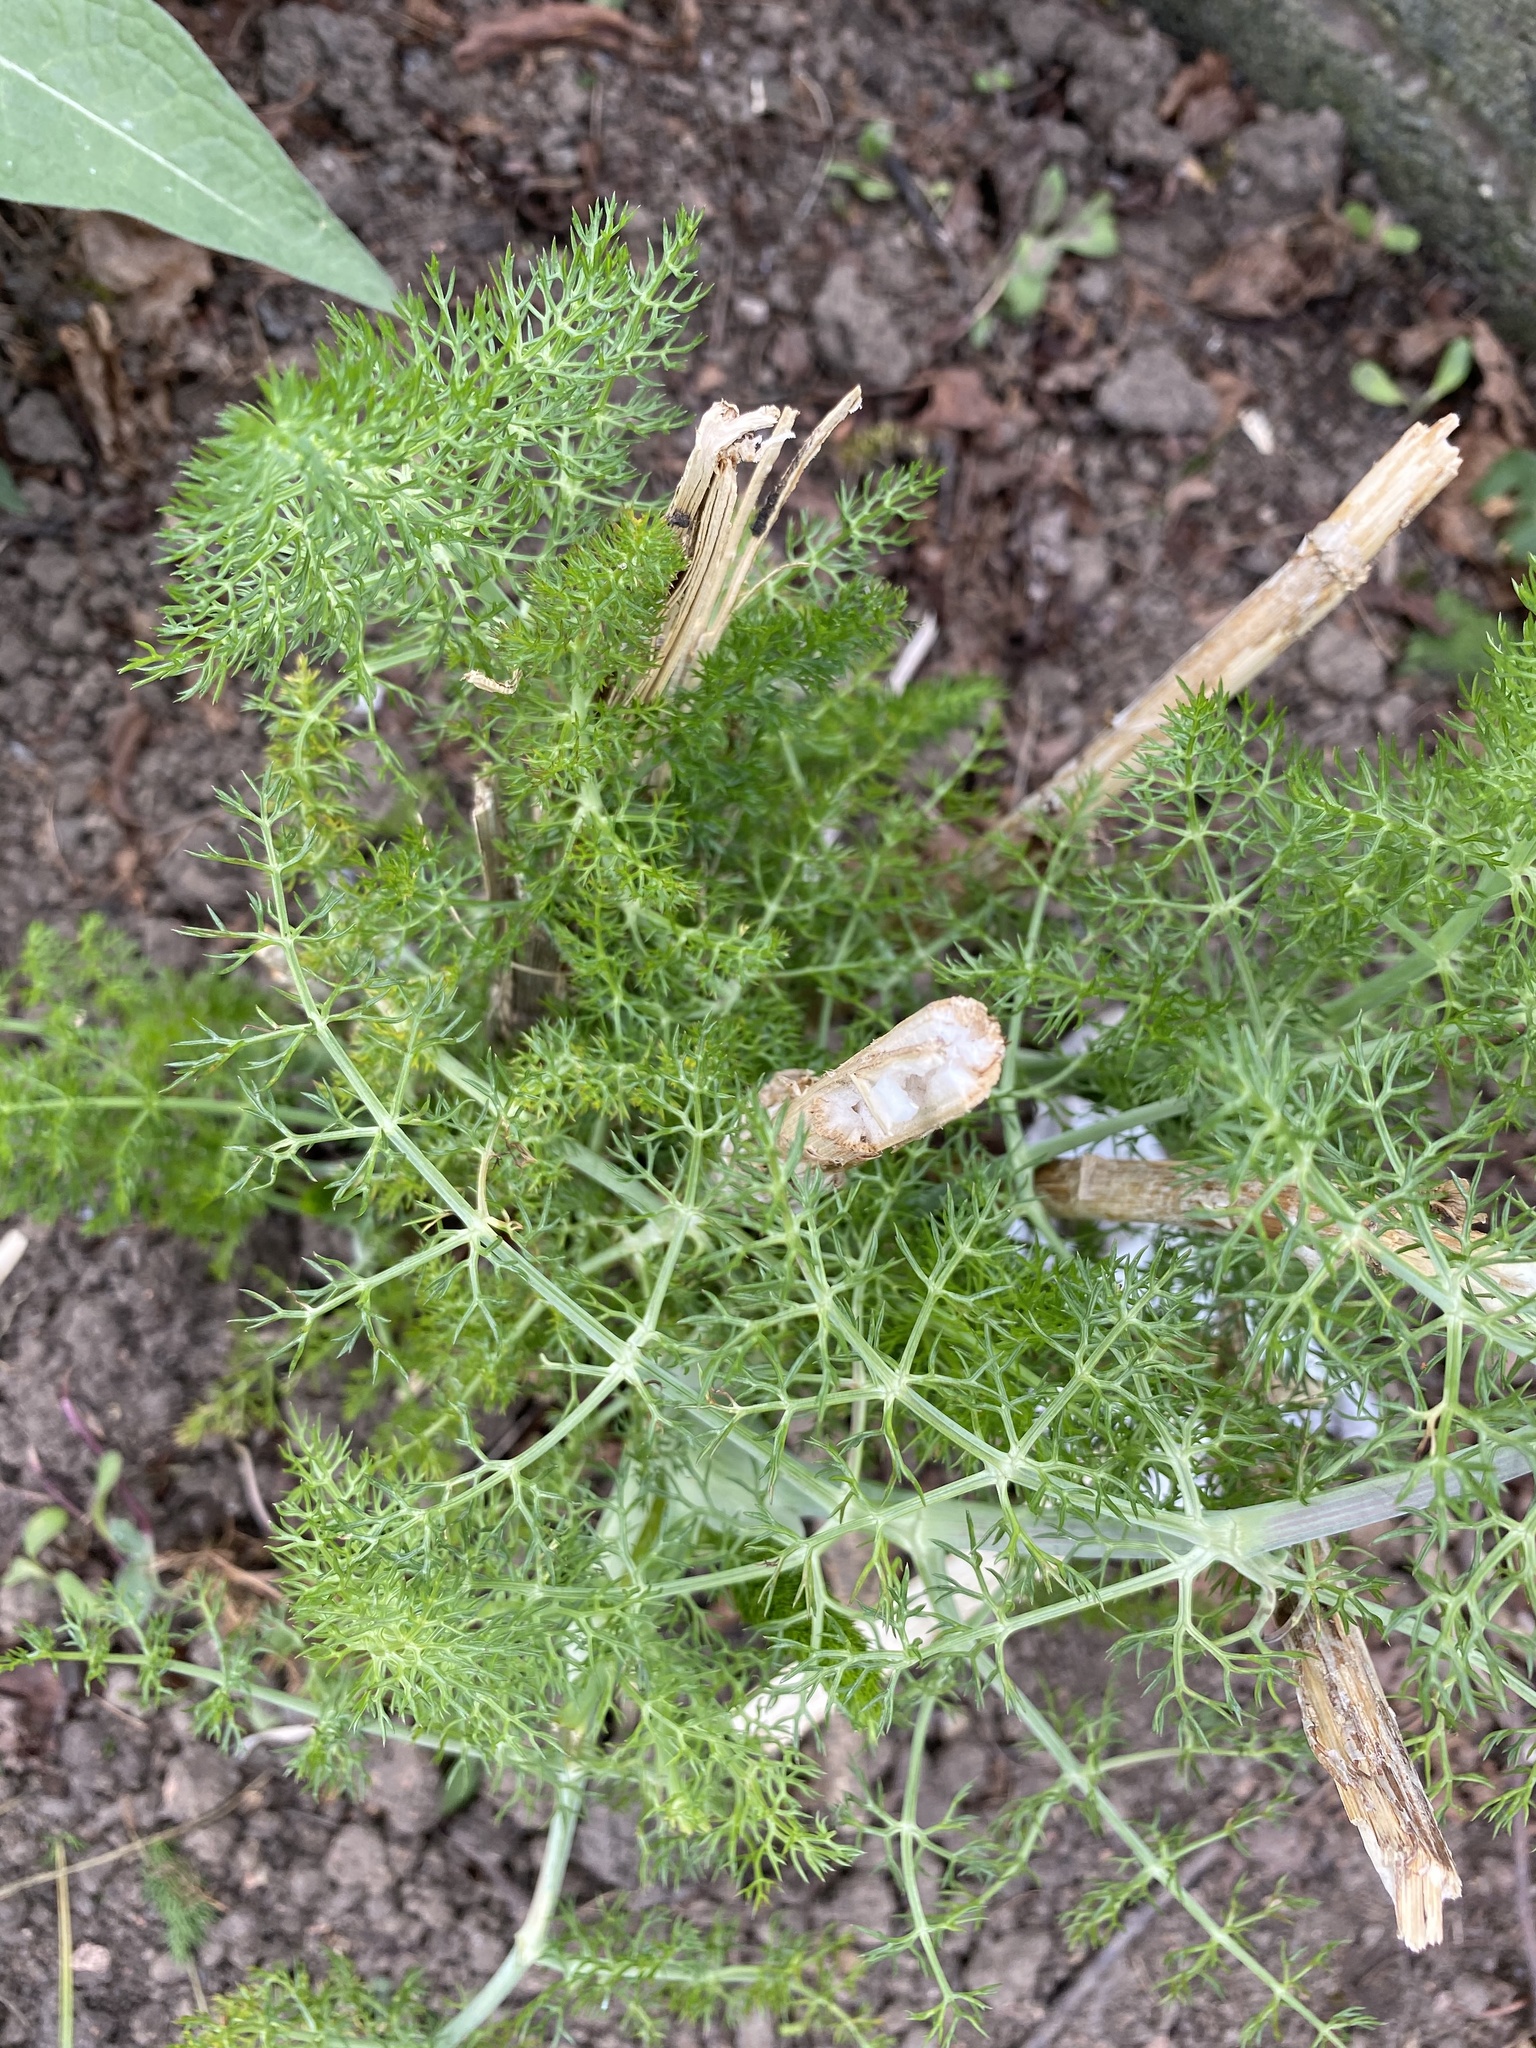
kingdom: Plantae
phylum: Tracheophyta
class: Magnoliopsida
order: Apiales
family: Apiaceae
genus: Foeniculum
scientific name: Foeniculum vulgare
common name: Fennel
